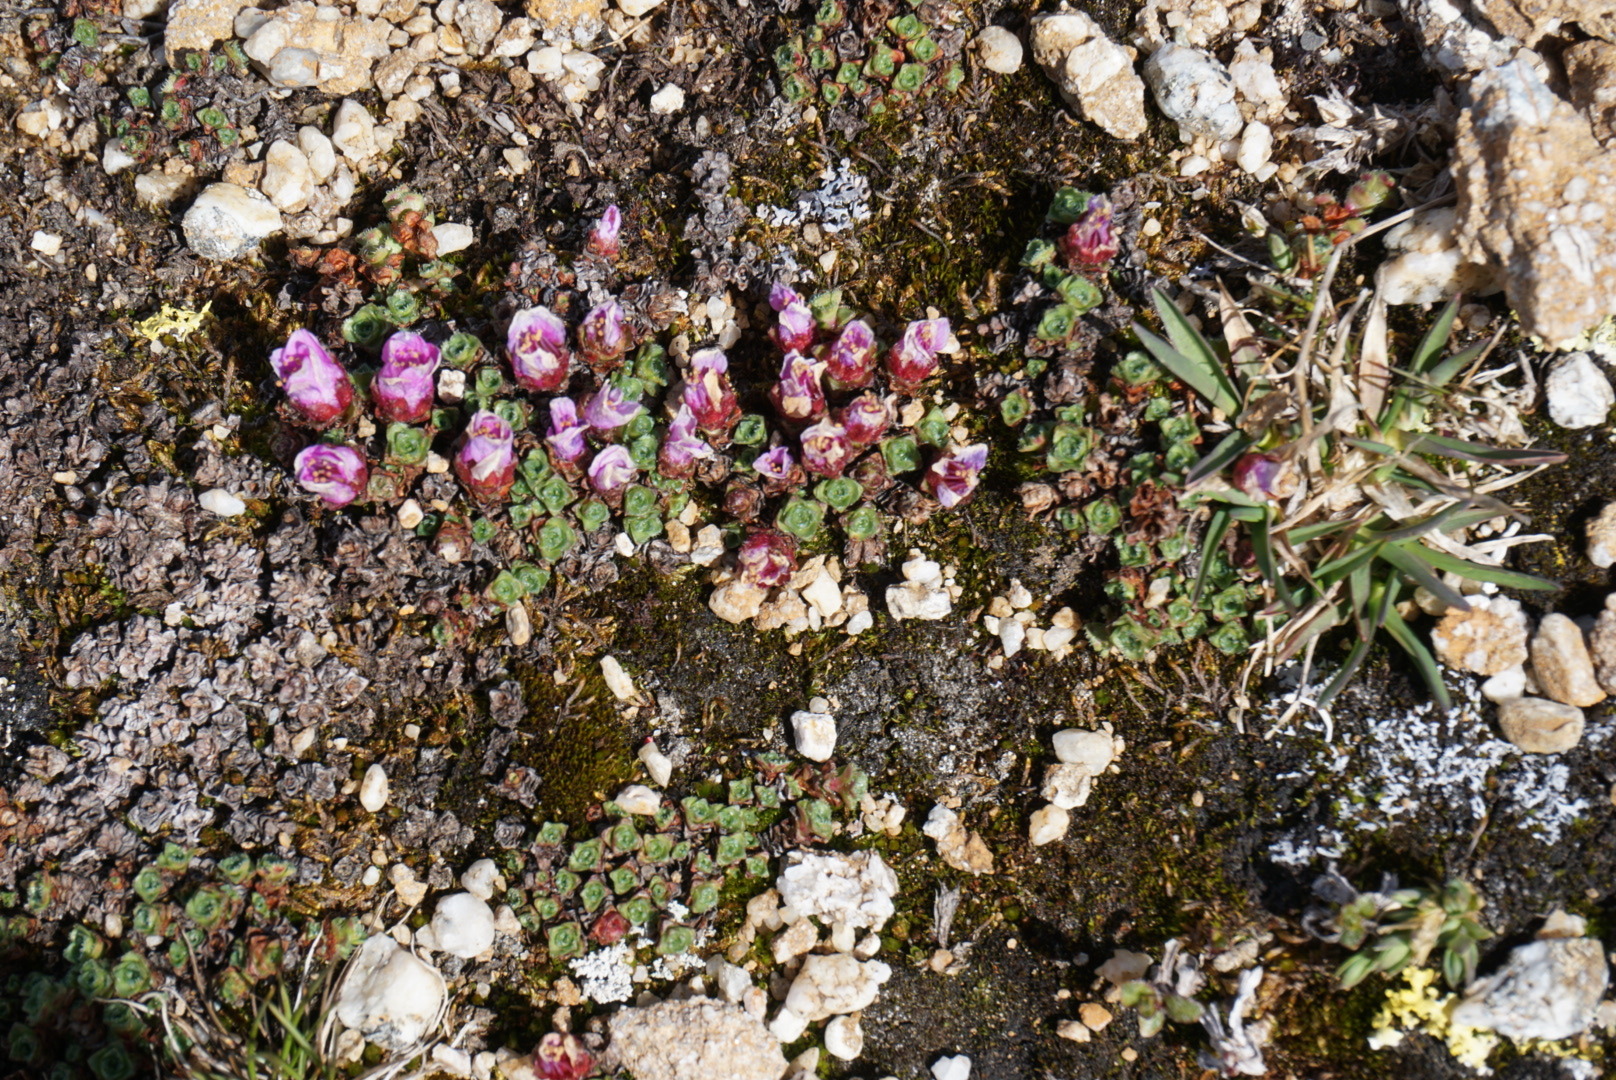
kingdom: Plantae
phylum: Tracheophyta
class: Magnoliopsida
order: Saxifragales
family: Saxifragaceae
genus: Saxifraga
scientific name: Saxifraga oppositifolia
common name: Purple saxifrage
